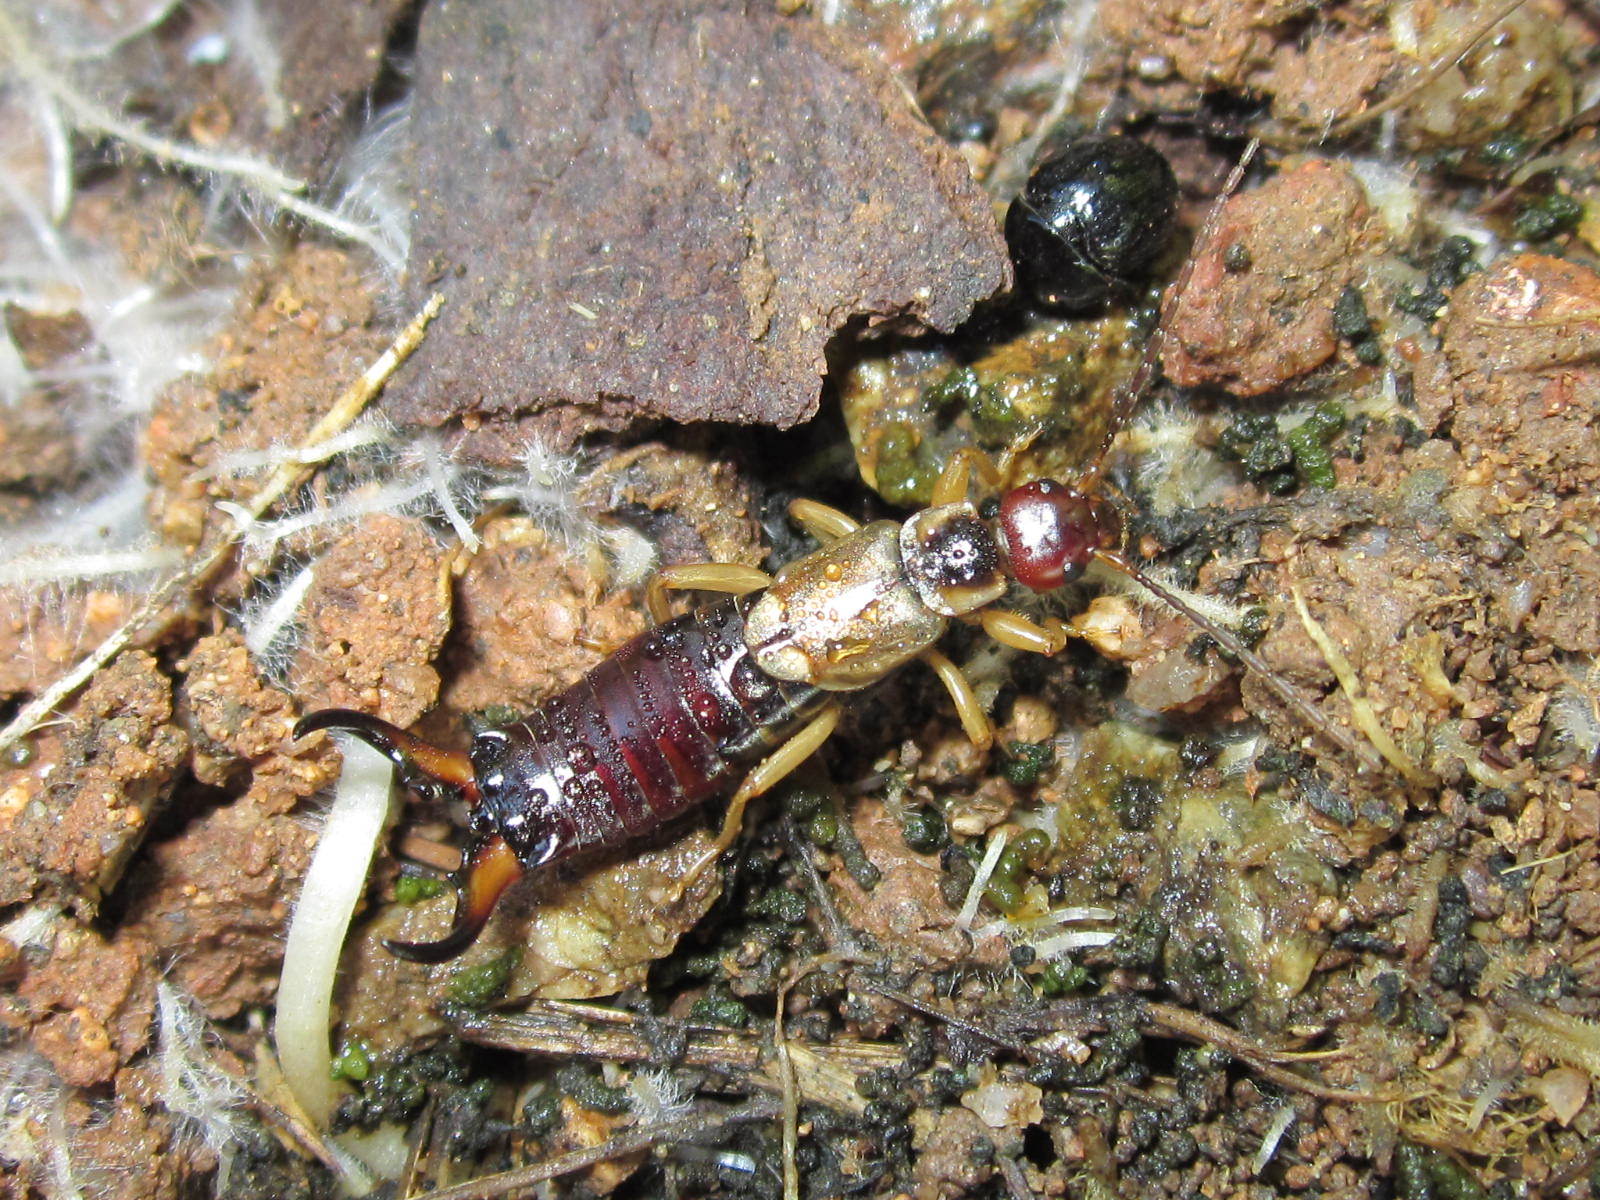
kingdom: Animalia
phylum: Arthropoda
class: Insecta
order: Dermaptera
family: Forficulidae
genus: Forficula
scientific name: Forficula
